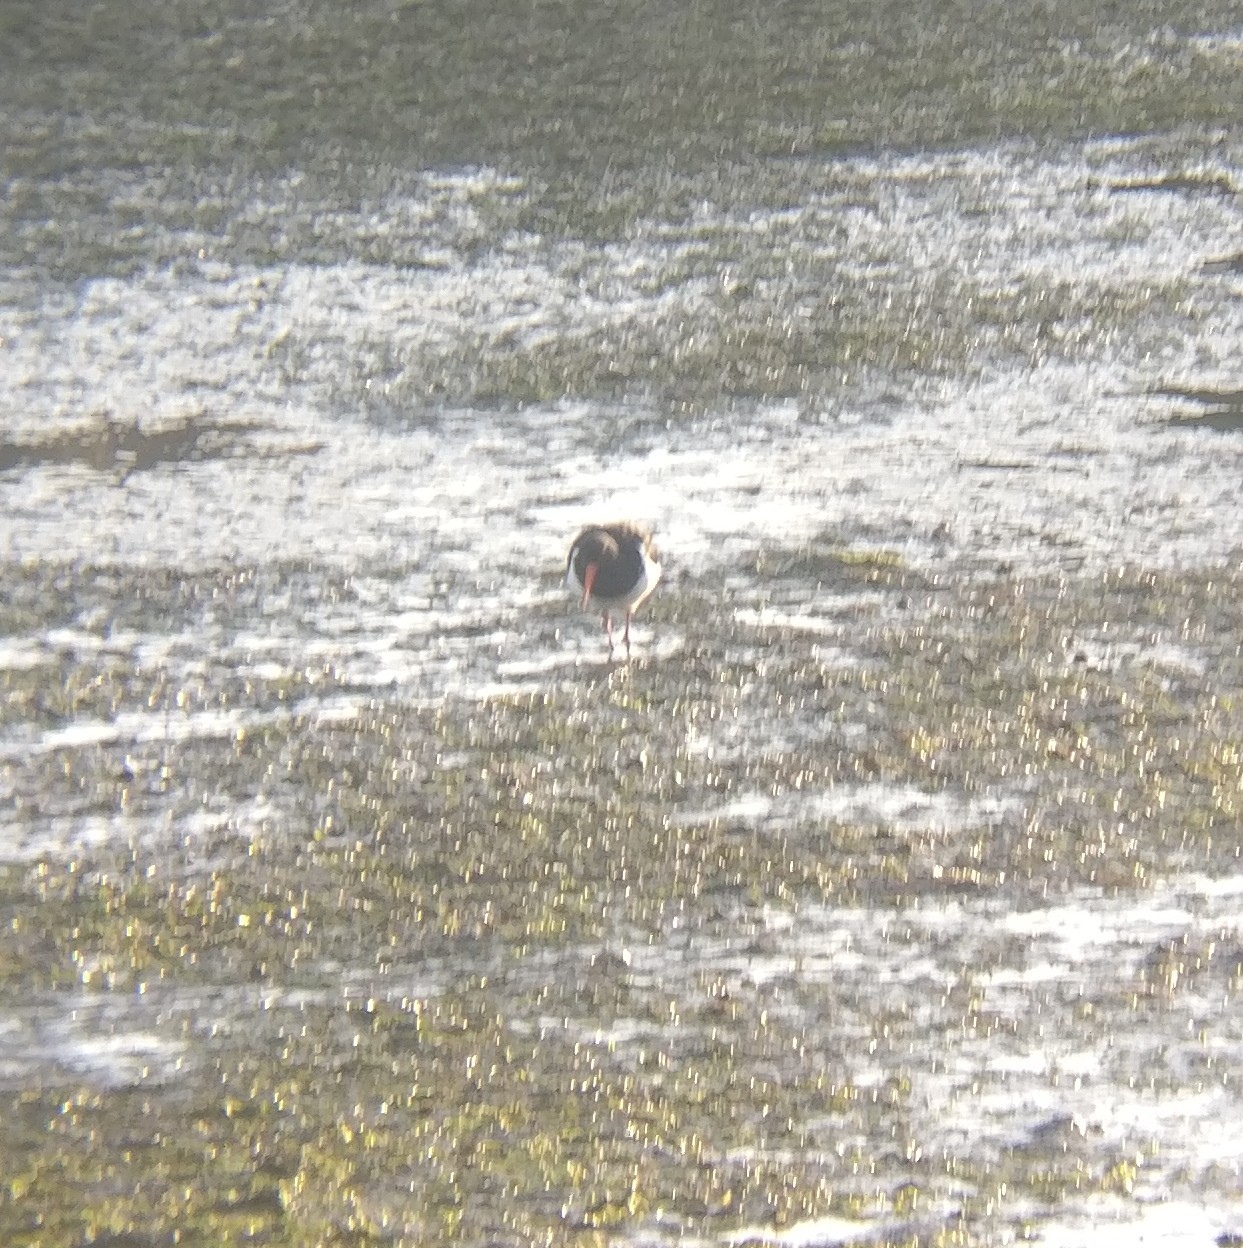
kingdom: Animalia
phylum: Chordata
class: Aves
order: Charadriiformes
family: Haematopodidae
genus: Haematopus
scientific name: Haematopus finschi
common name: South island oystercatcher
